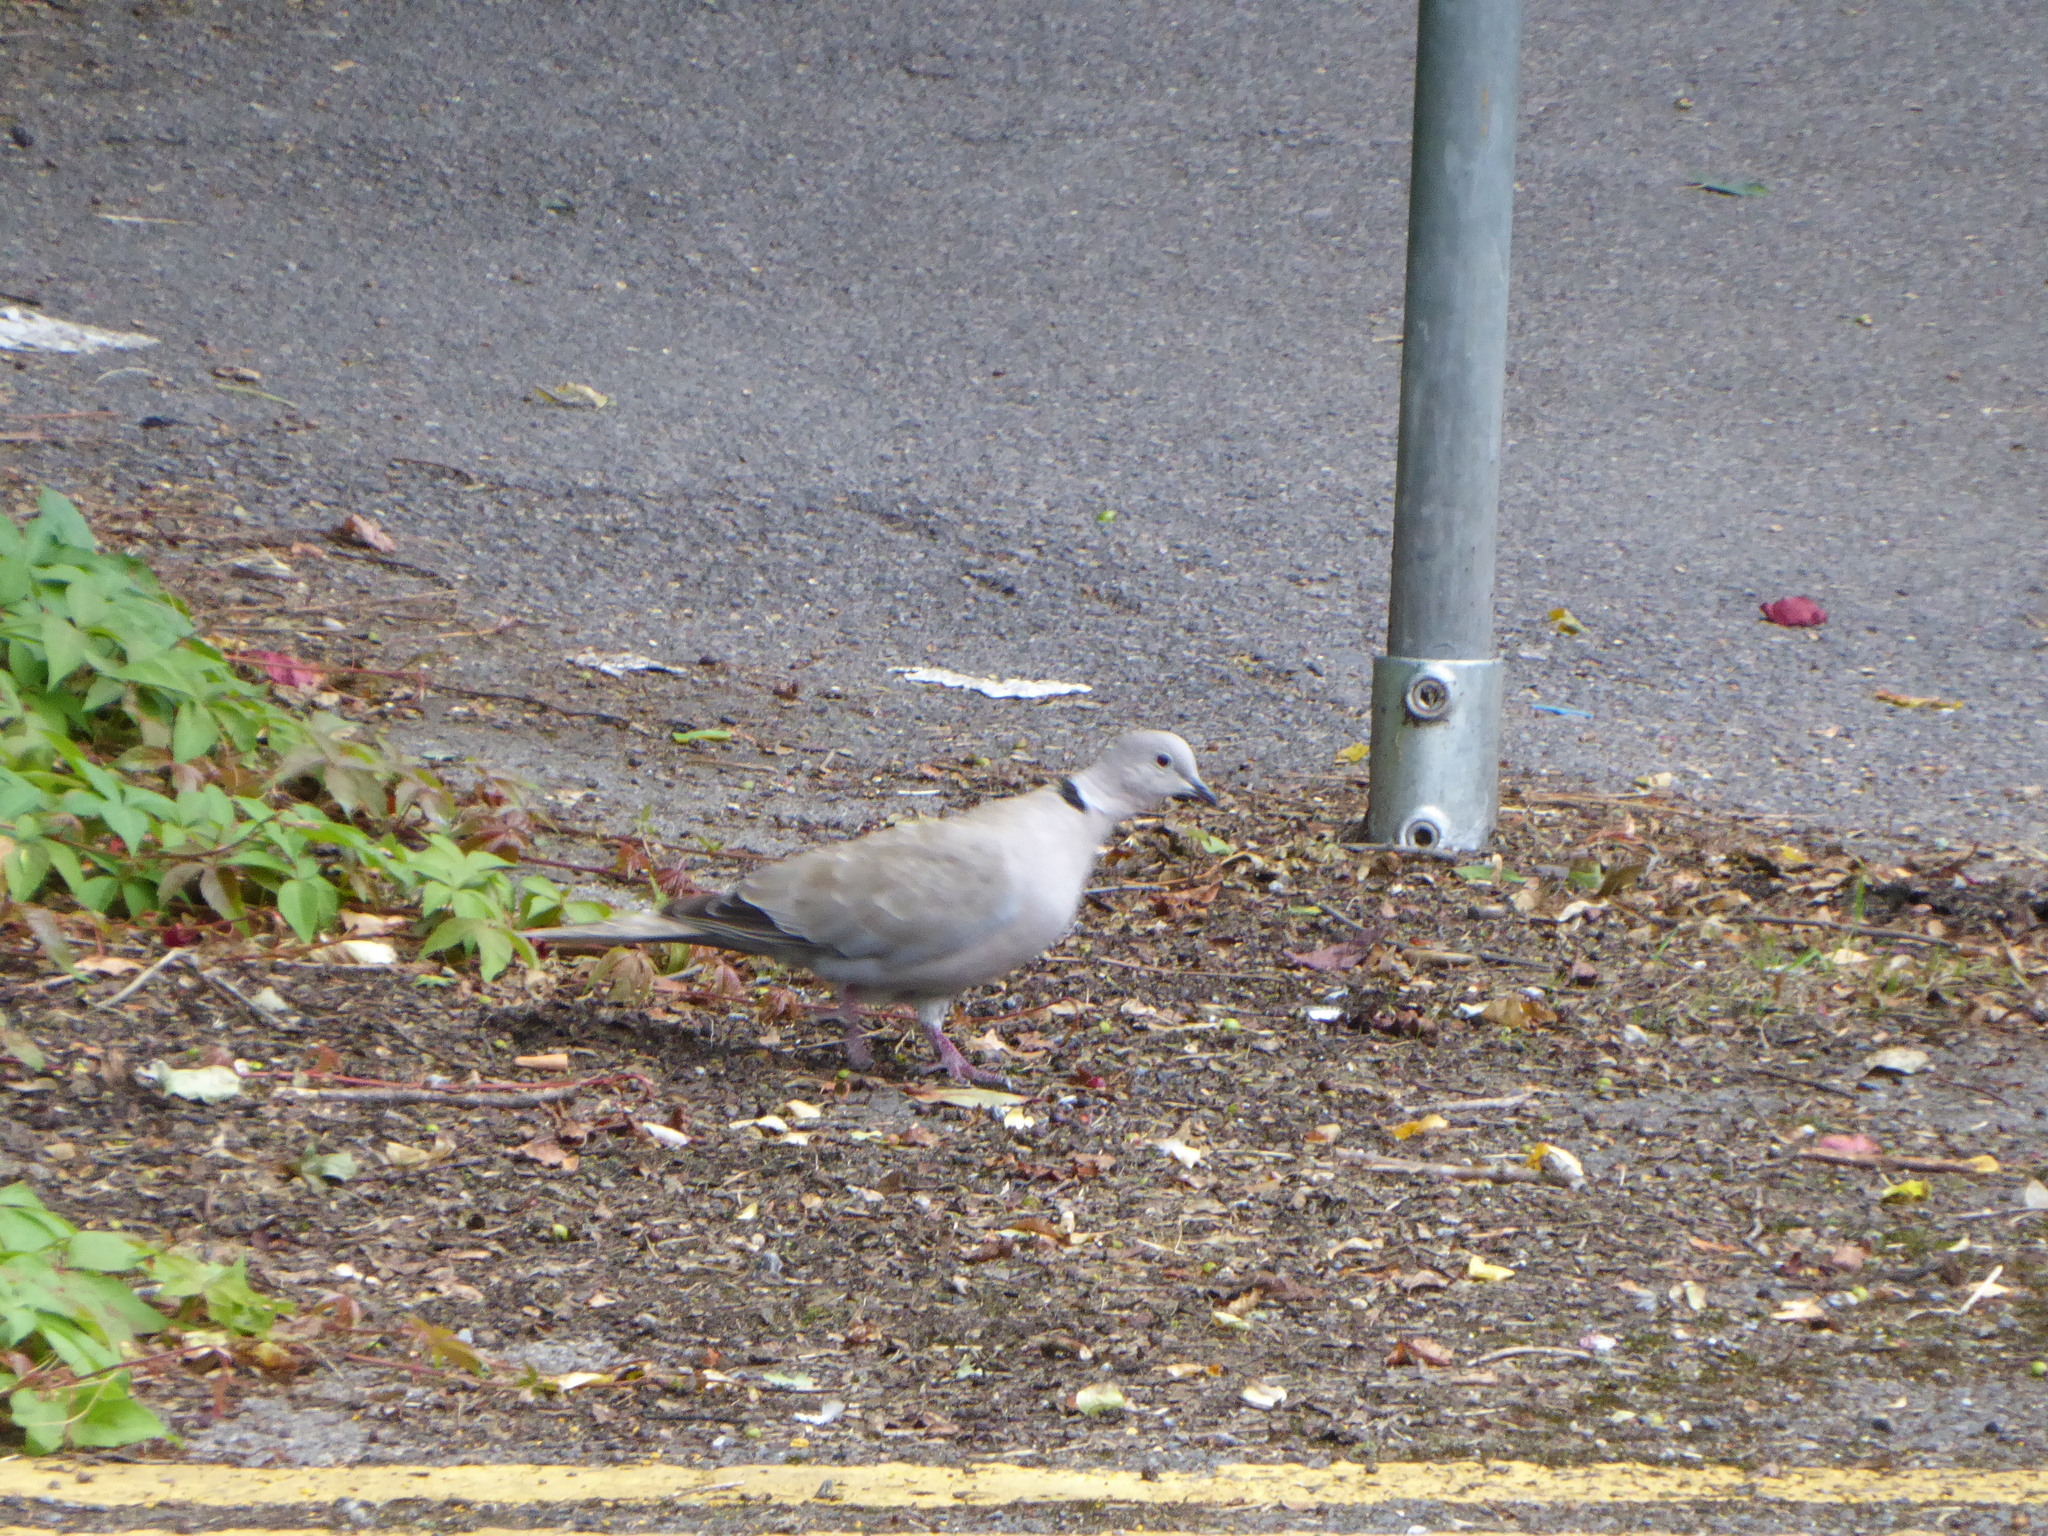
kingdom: Animalia
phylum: Chordata
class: Aves
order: Columbiformes
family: Columbidae
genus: Streptopelia
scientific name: Streptopelia decaocto
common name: Eurasian collared dove
